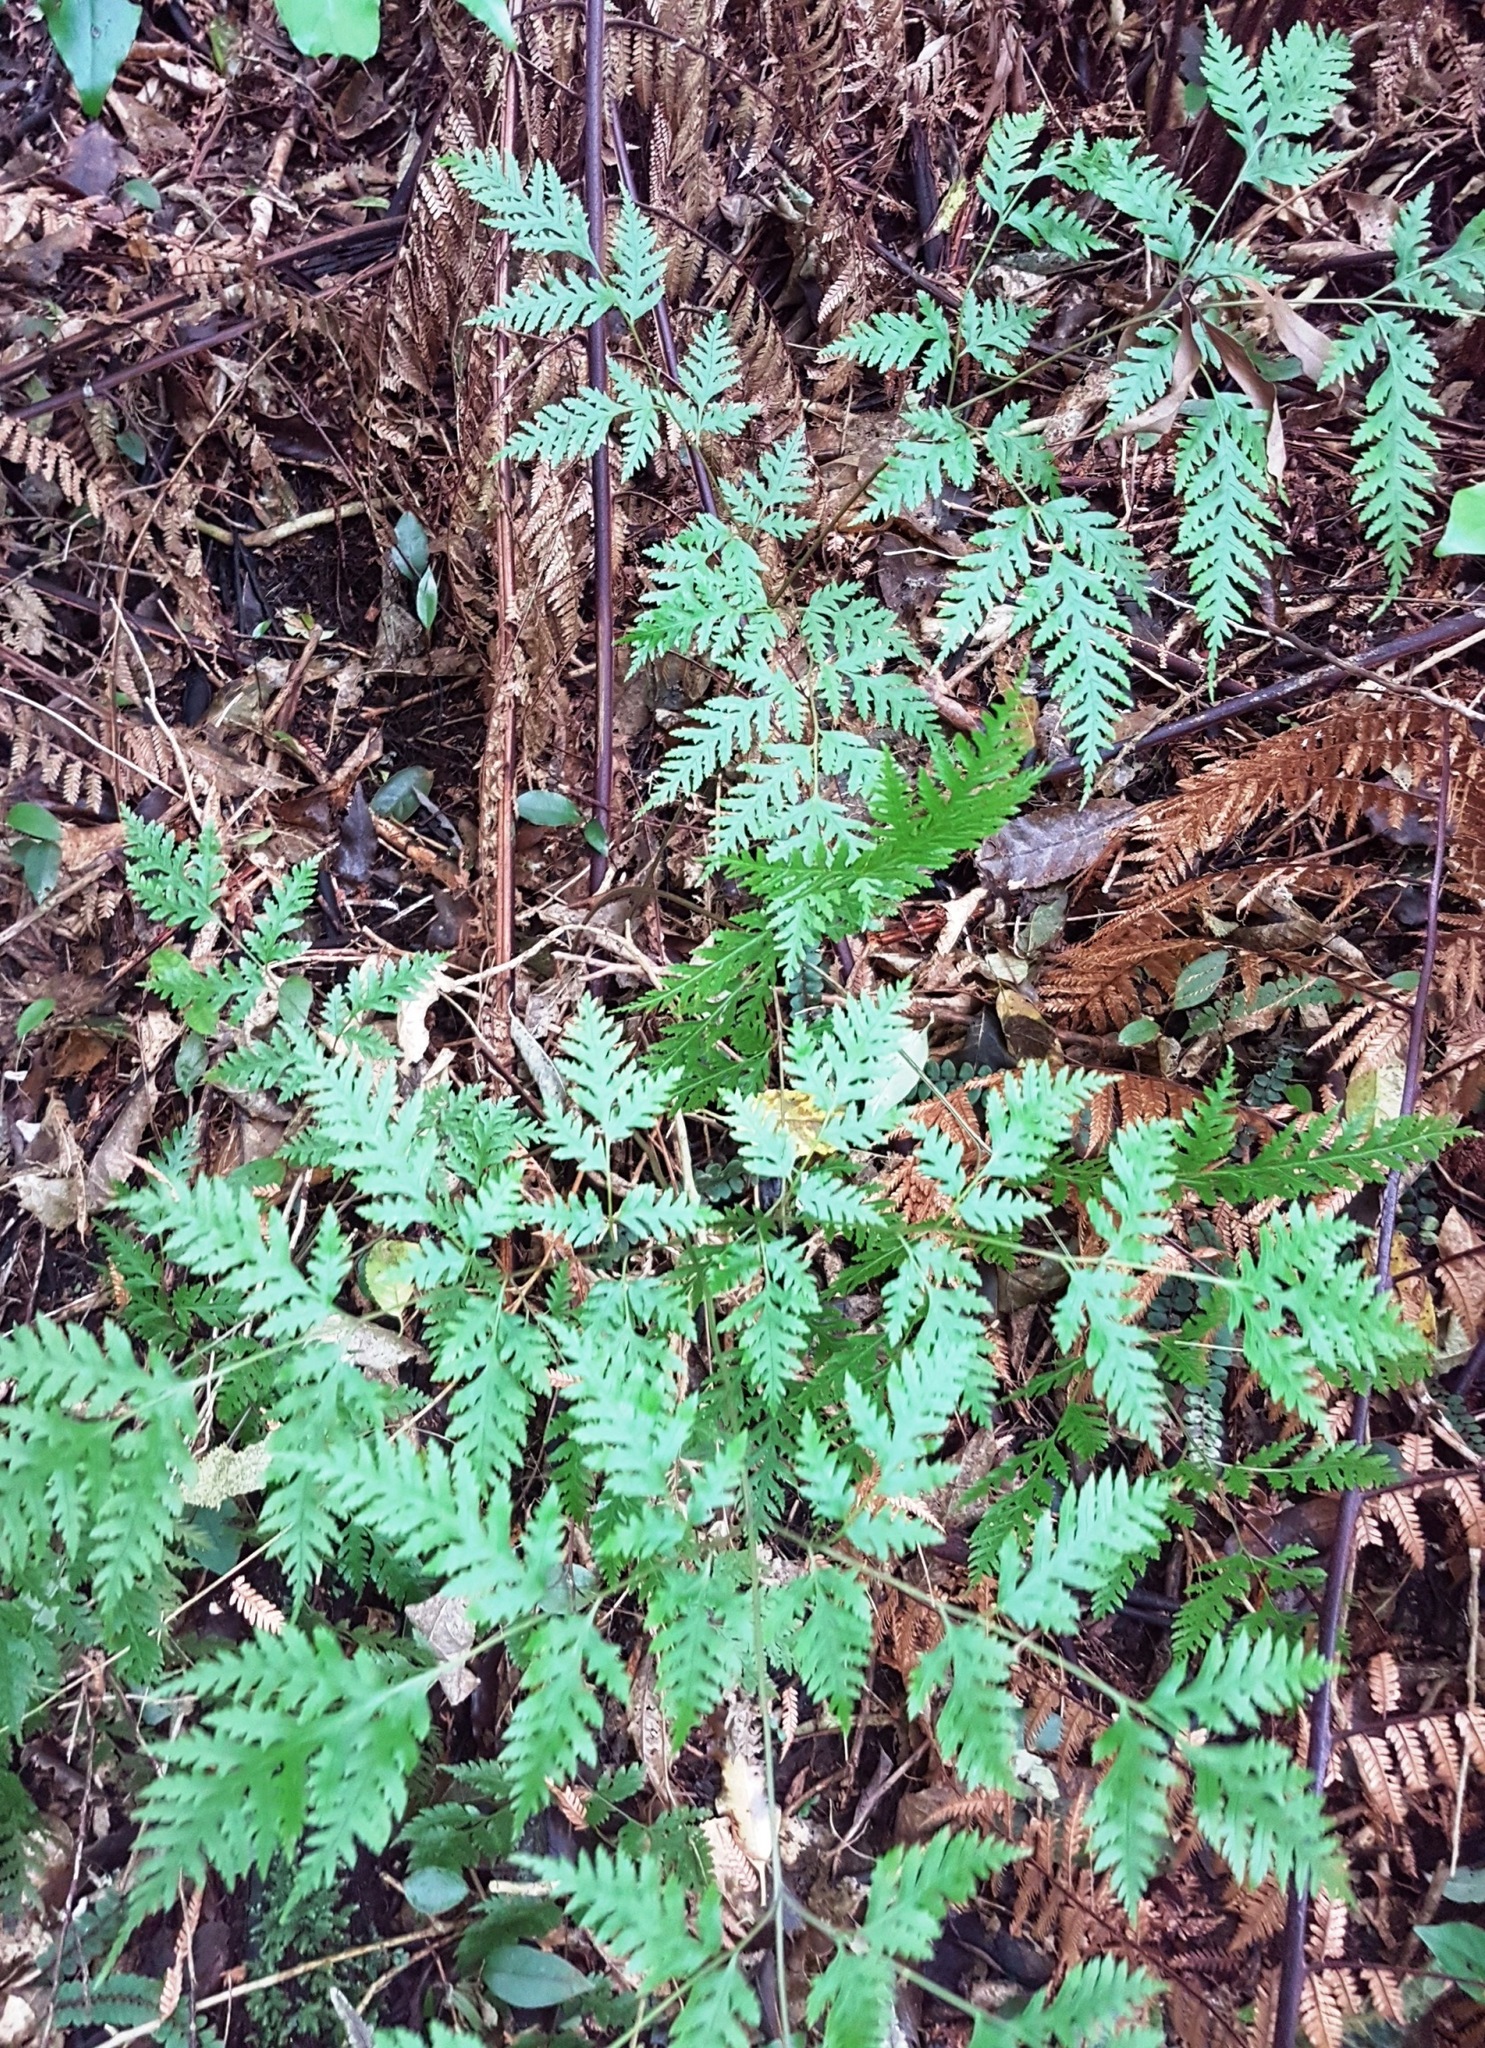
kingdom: Plantae
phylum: Tracheophyta
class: Polypodiopsida
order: Polypodiales
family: Pteridaceae
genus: Pteris
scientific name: Pteris macilenta
